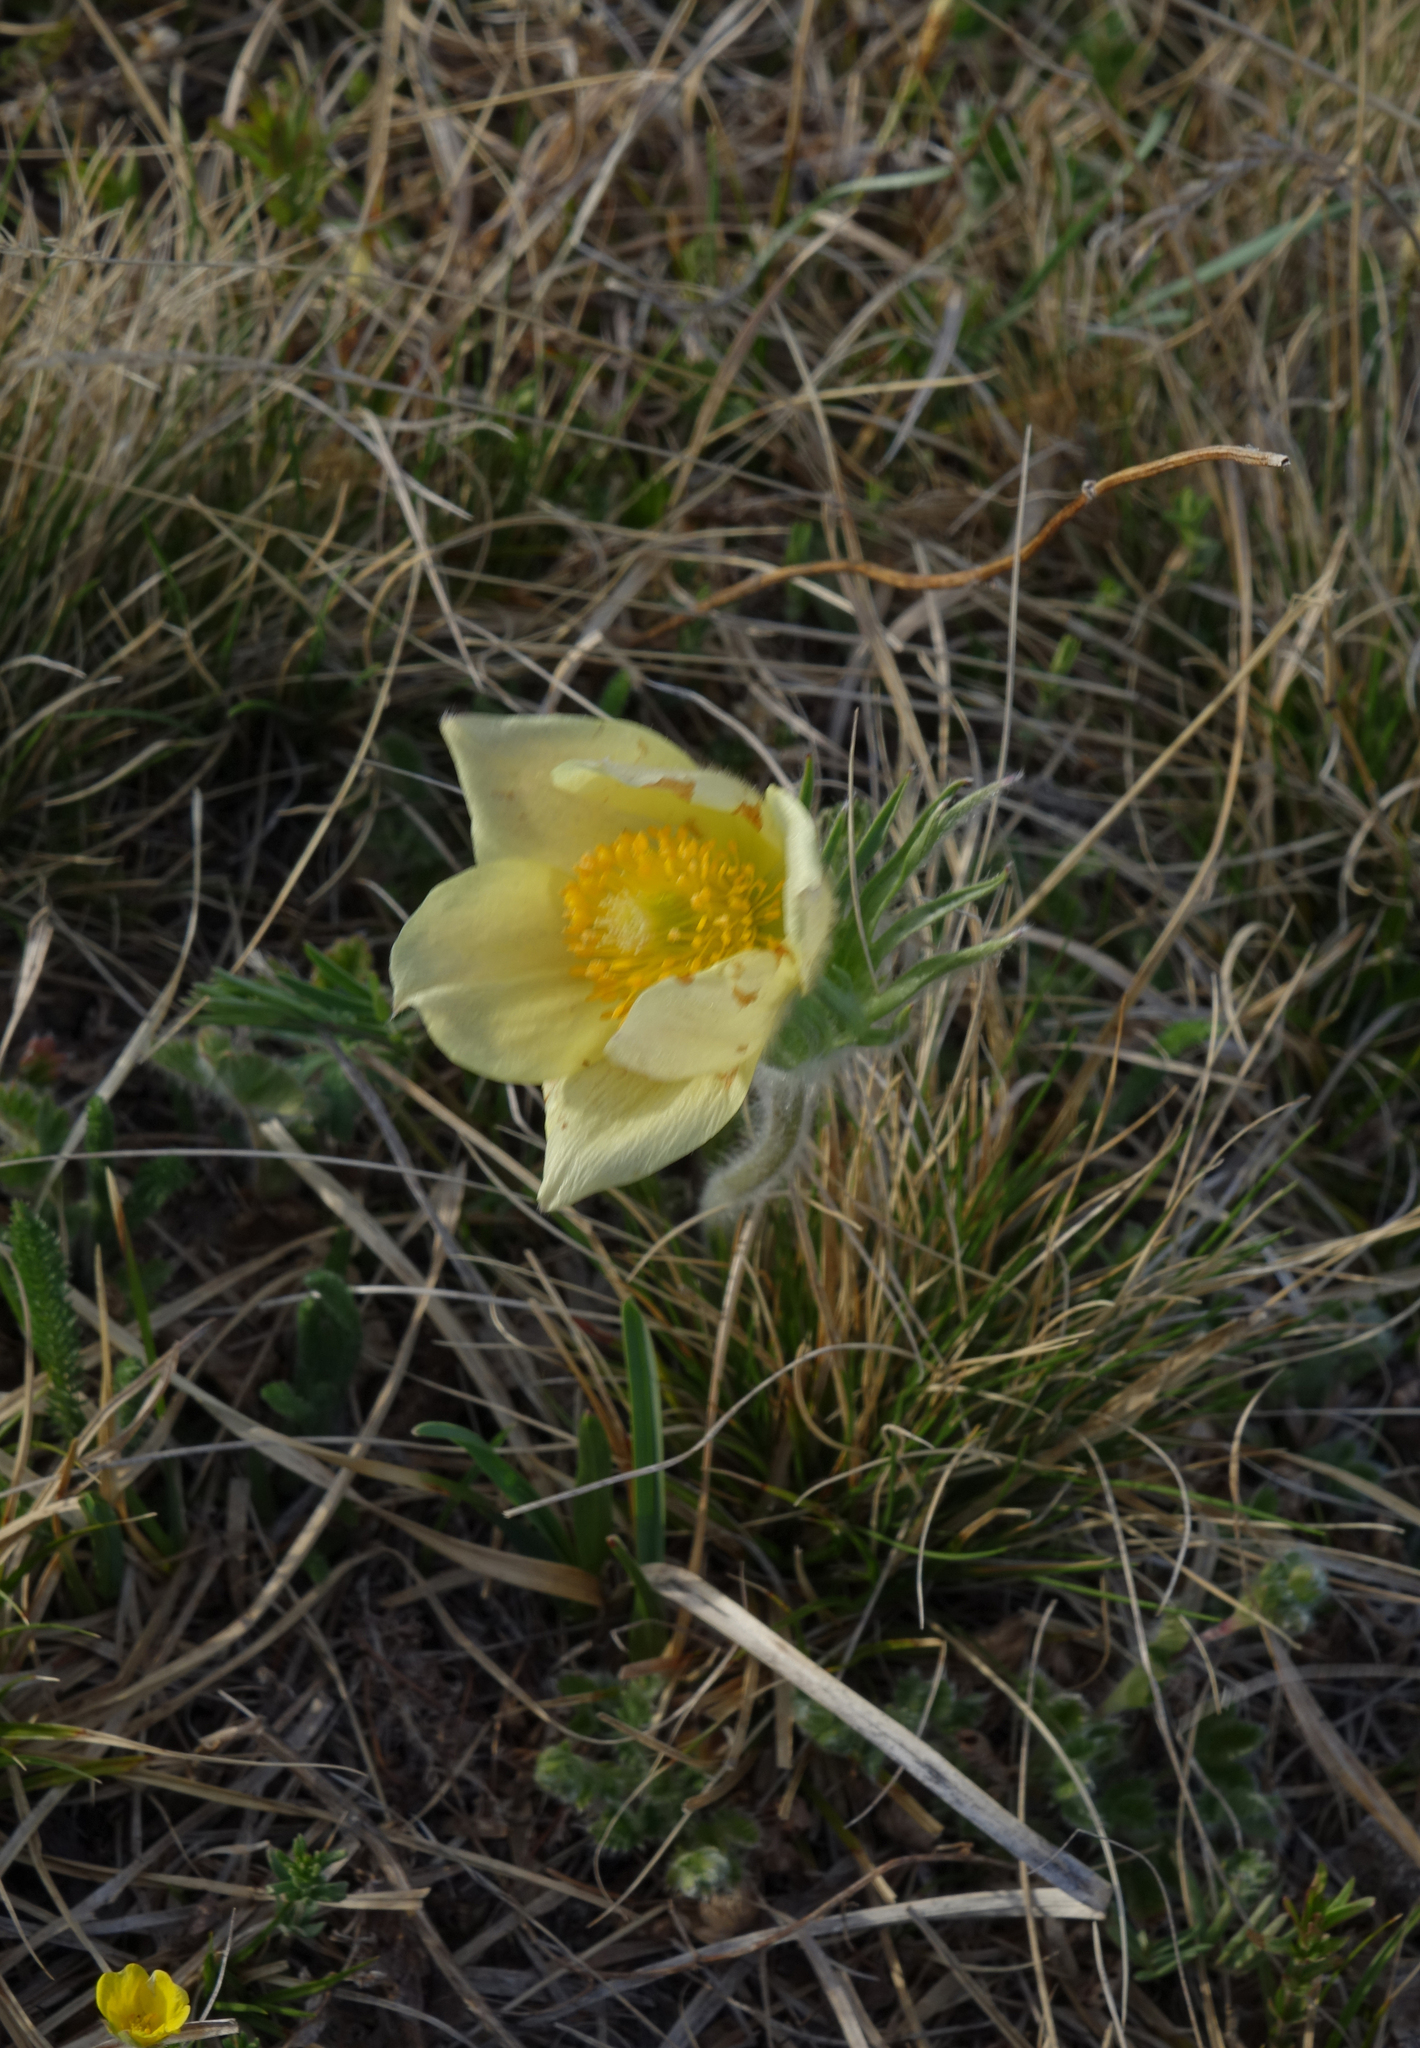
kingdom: Plantae
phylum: Tracheophyta
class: Magnoliopsida
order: Ranunculales
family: Ranunculaceae
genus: Pulsatilla
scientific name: Pulsatilla patens
